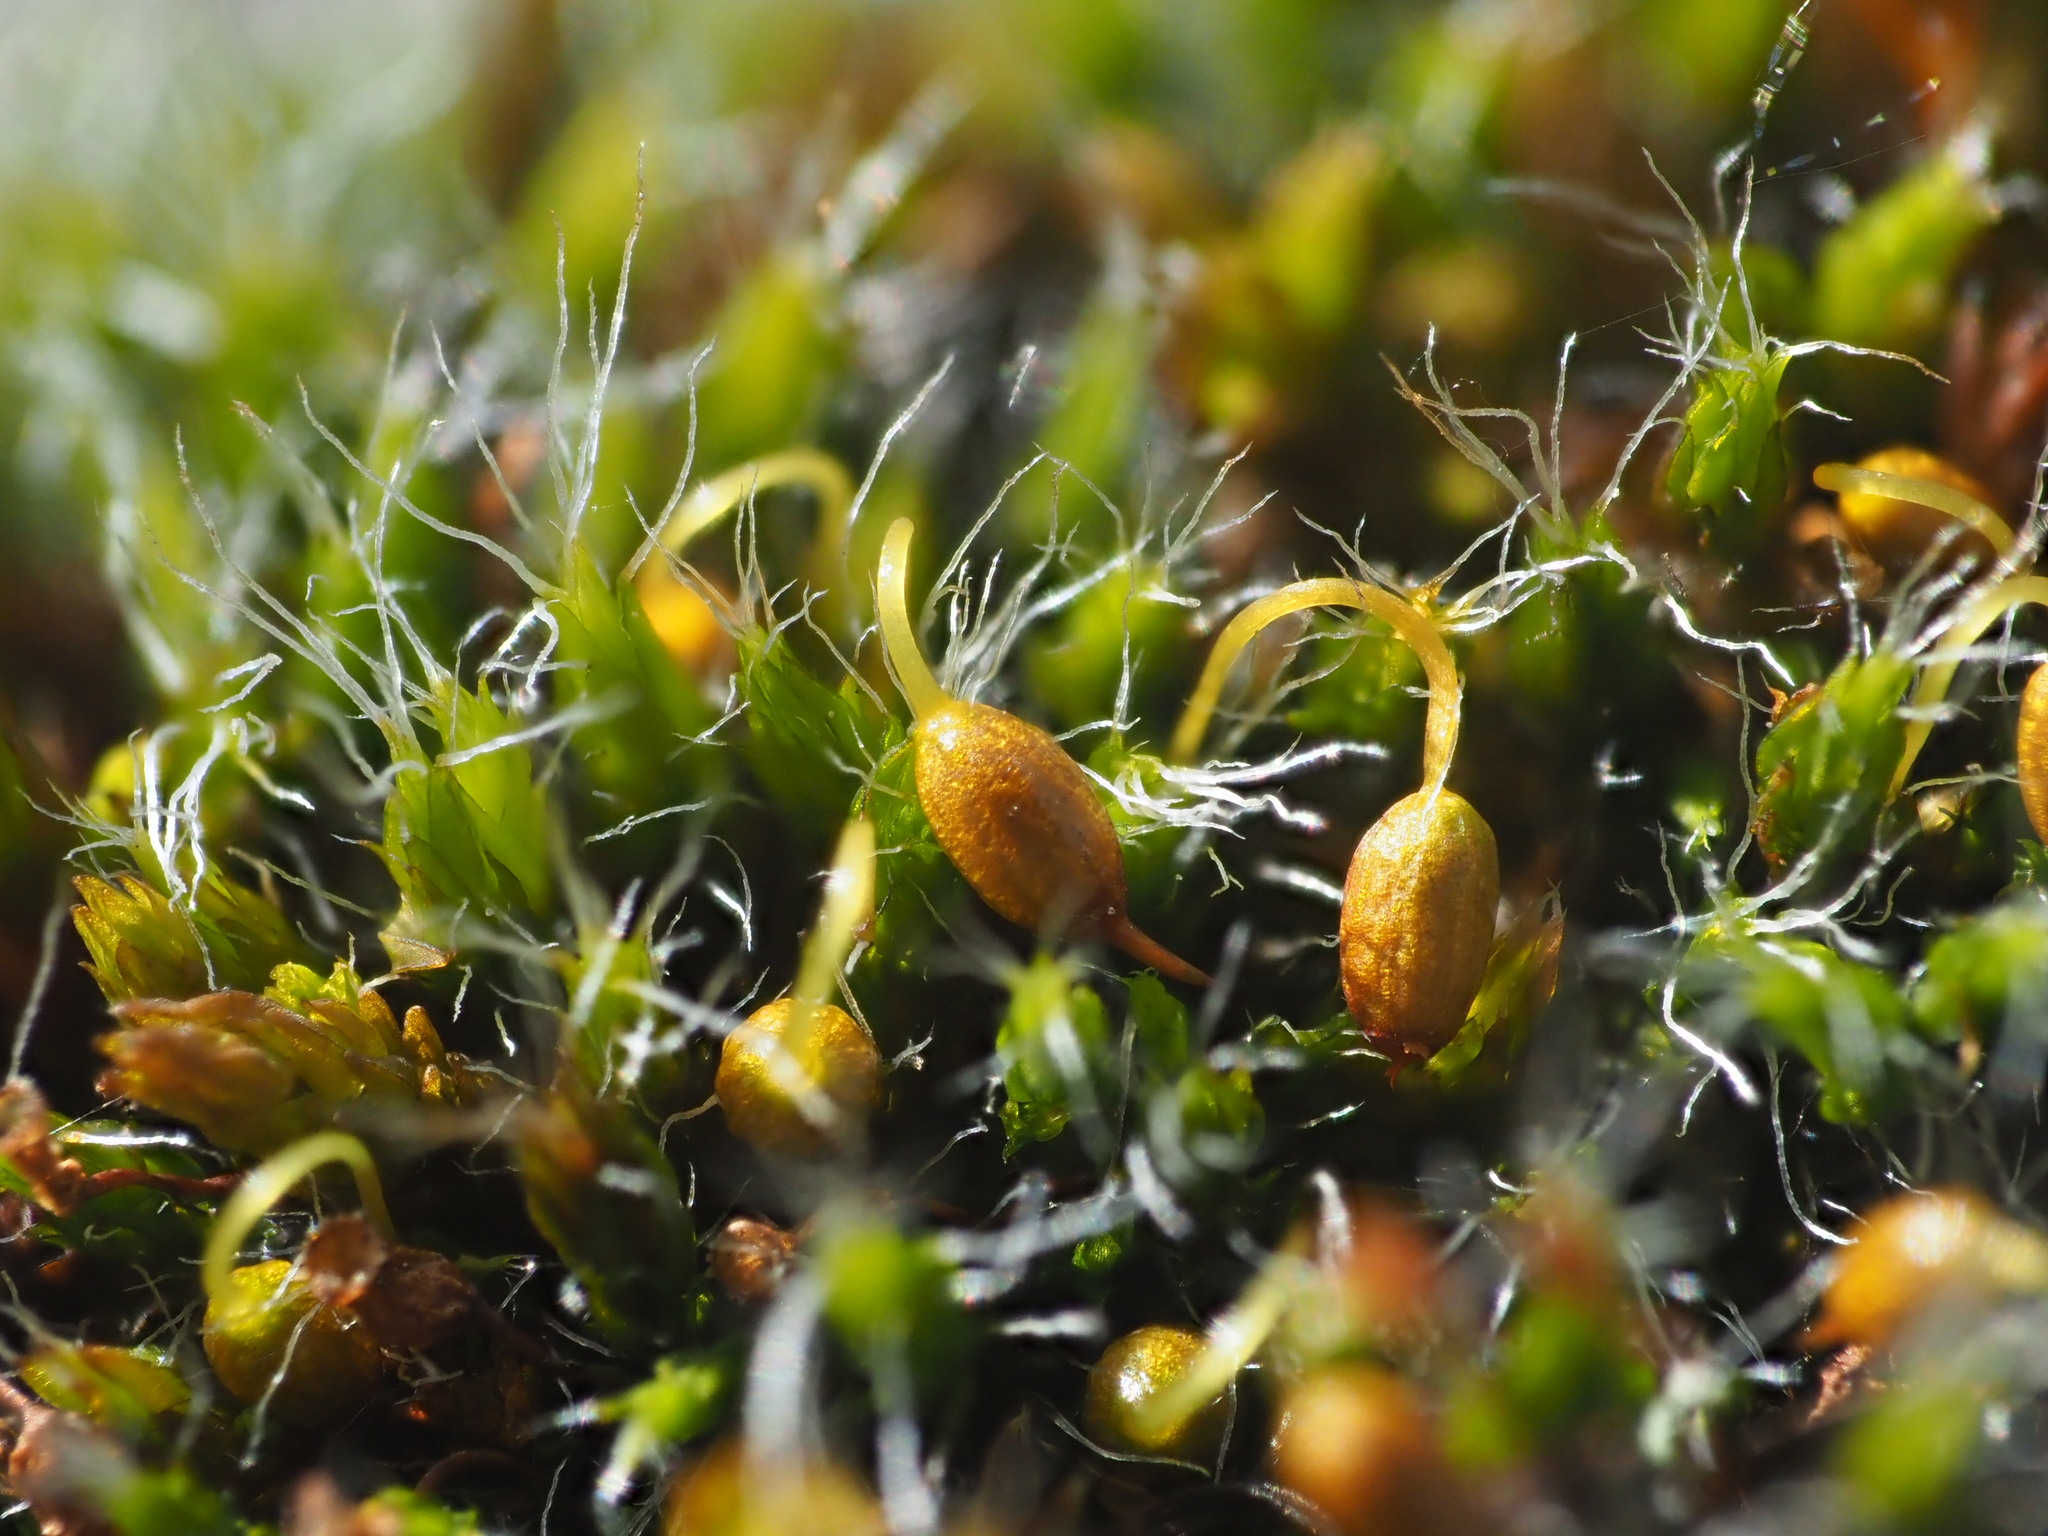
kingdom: Plantae
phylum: Bryophyta
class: Bryopsida
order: Grimmiales
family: Grimmiaceae
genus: Grimmia
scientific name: Grimmia pulvinata
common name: Grey-cushioned grimmia
